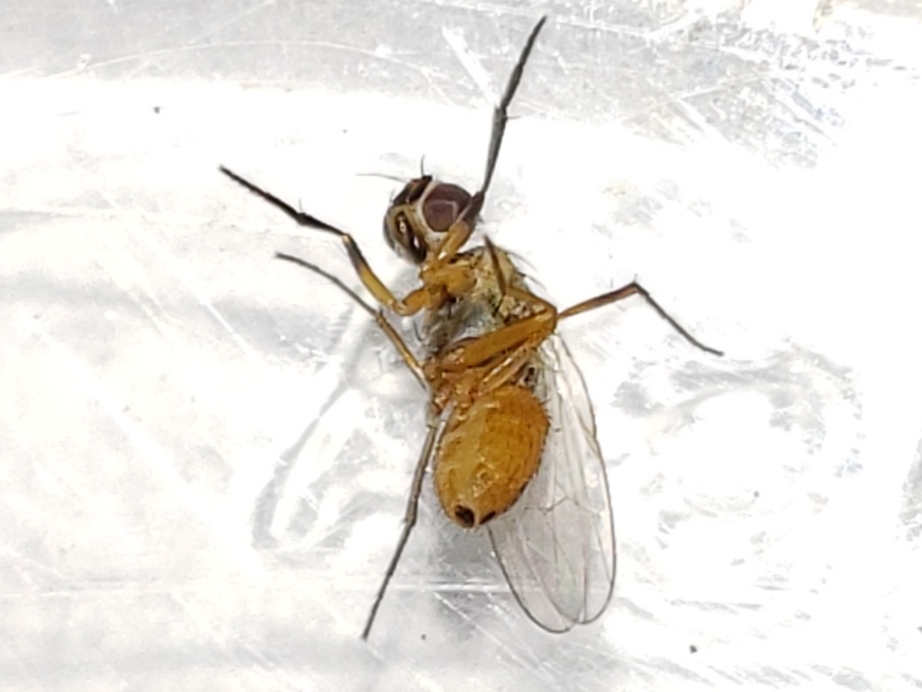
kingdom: Animalia
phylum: Arthropoda
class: Insecta
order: Diptera
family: Muscidae
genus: Atherigona
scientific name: Atherigona reversura
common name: Bermudagrass stem maggot
